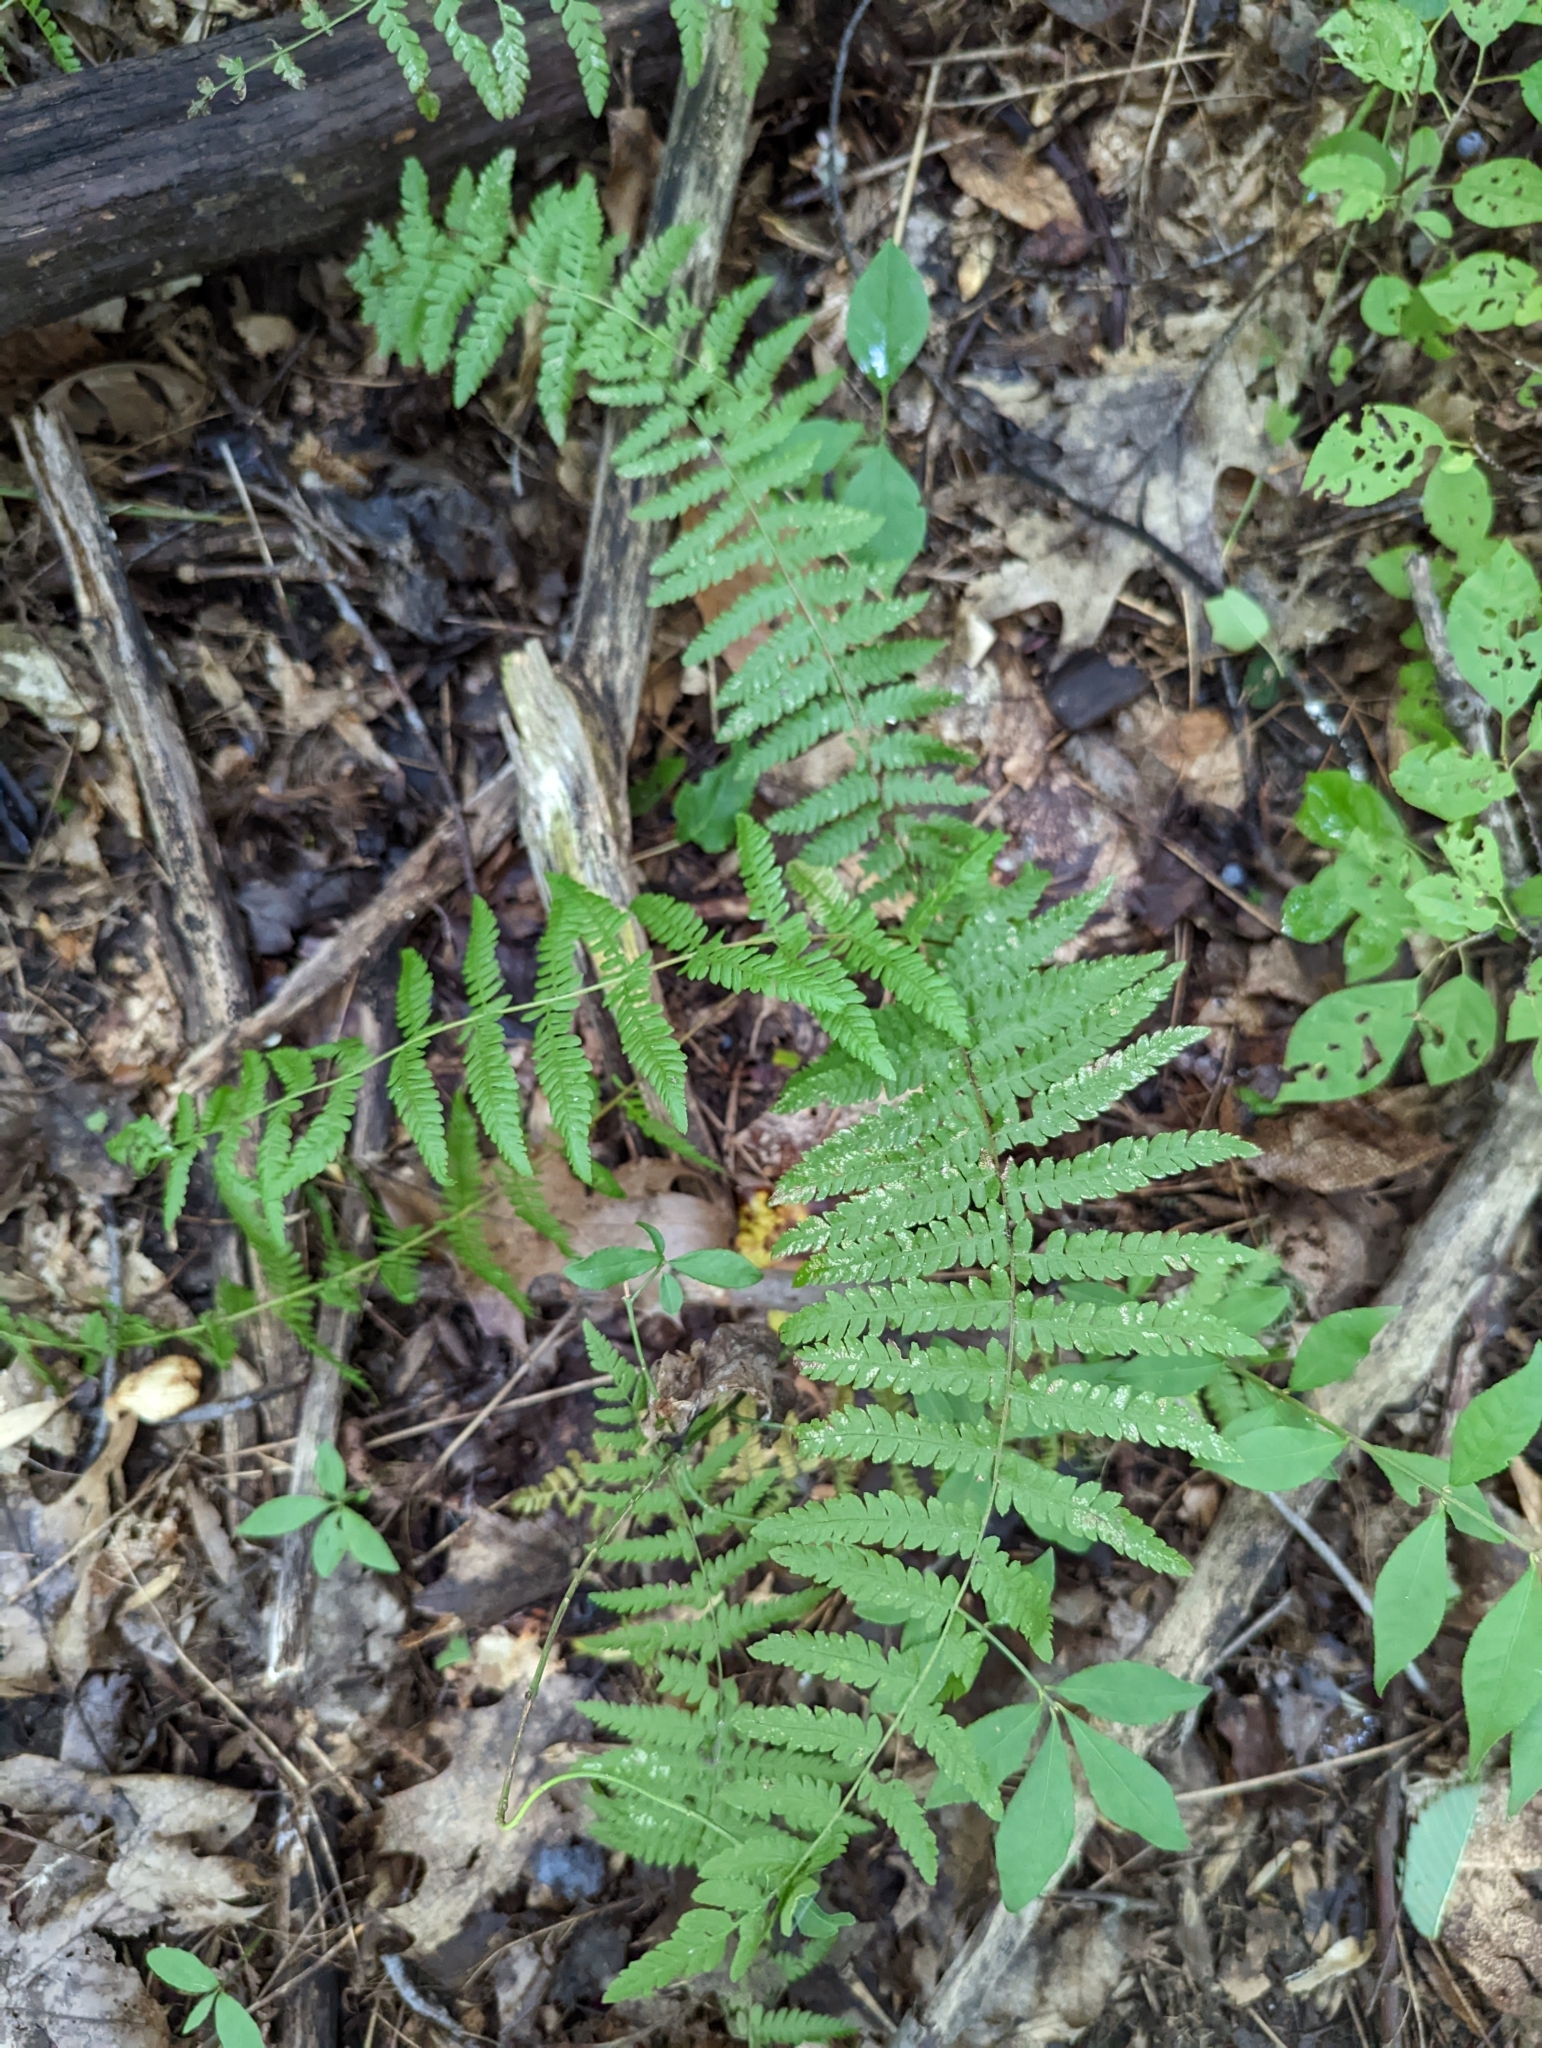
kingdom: Plantae
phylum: Tracheophyta
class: Polypodiopsida
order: Polypodiales
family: Thelypteridaceae
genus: Amauropelta
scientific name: Amauropelta noveboracensis
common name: New york fern
